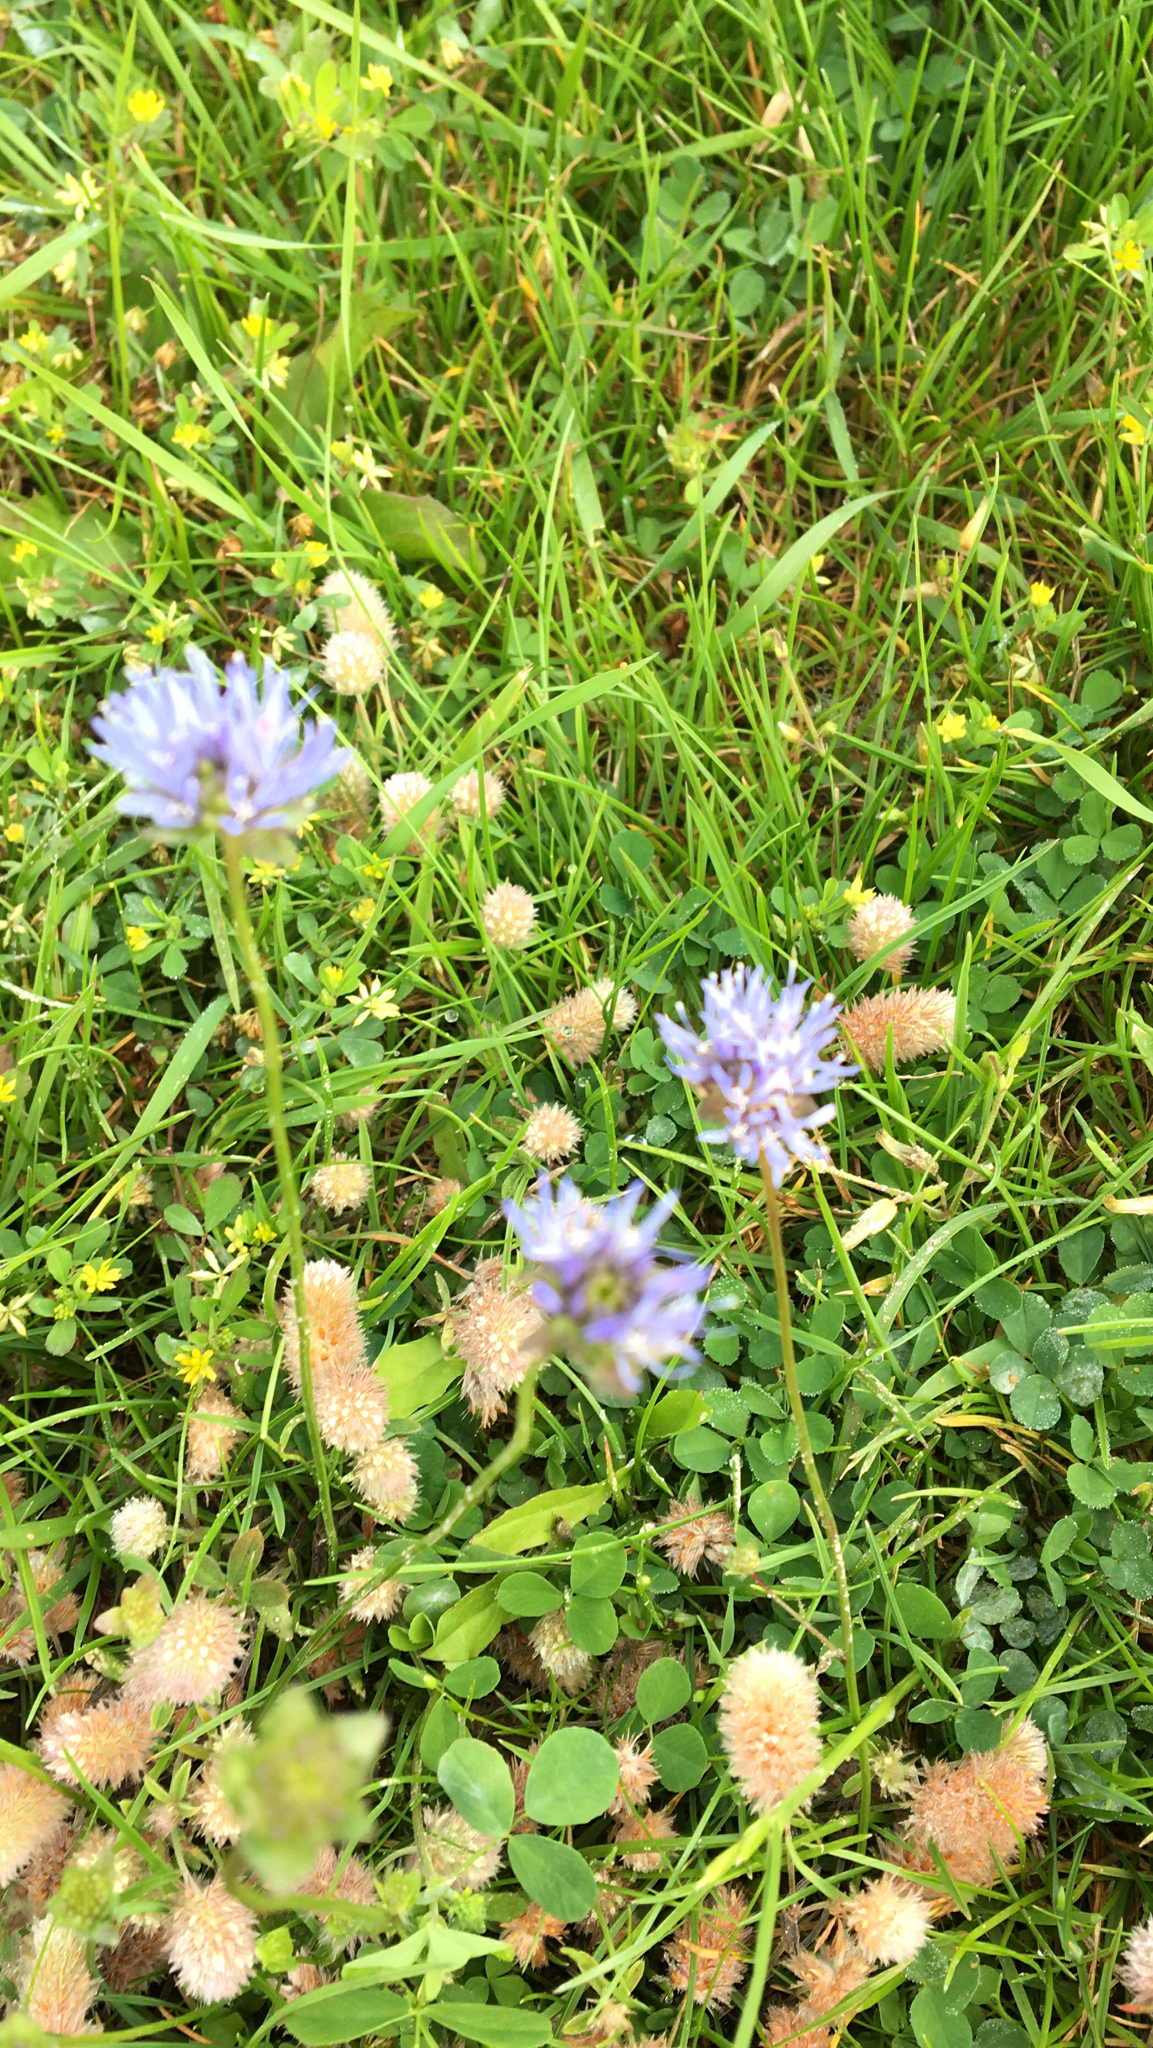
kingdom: Plantae
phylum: Tracheophyta
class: Magnoliopsida
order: Asterales
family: Campanulaceae
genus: Jasione
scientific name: Jasione montana
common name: Sheep's-bit
